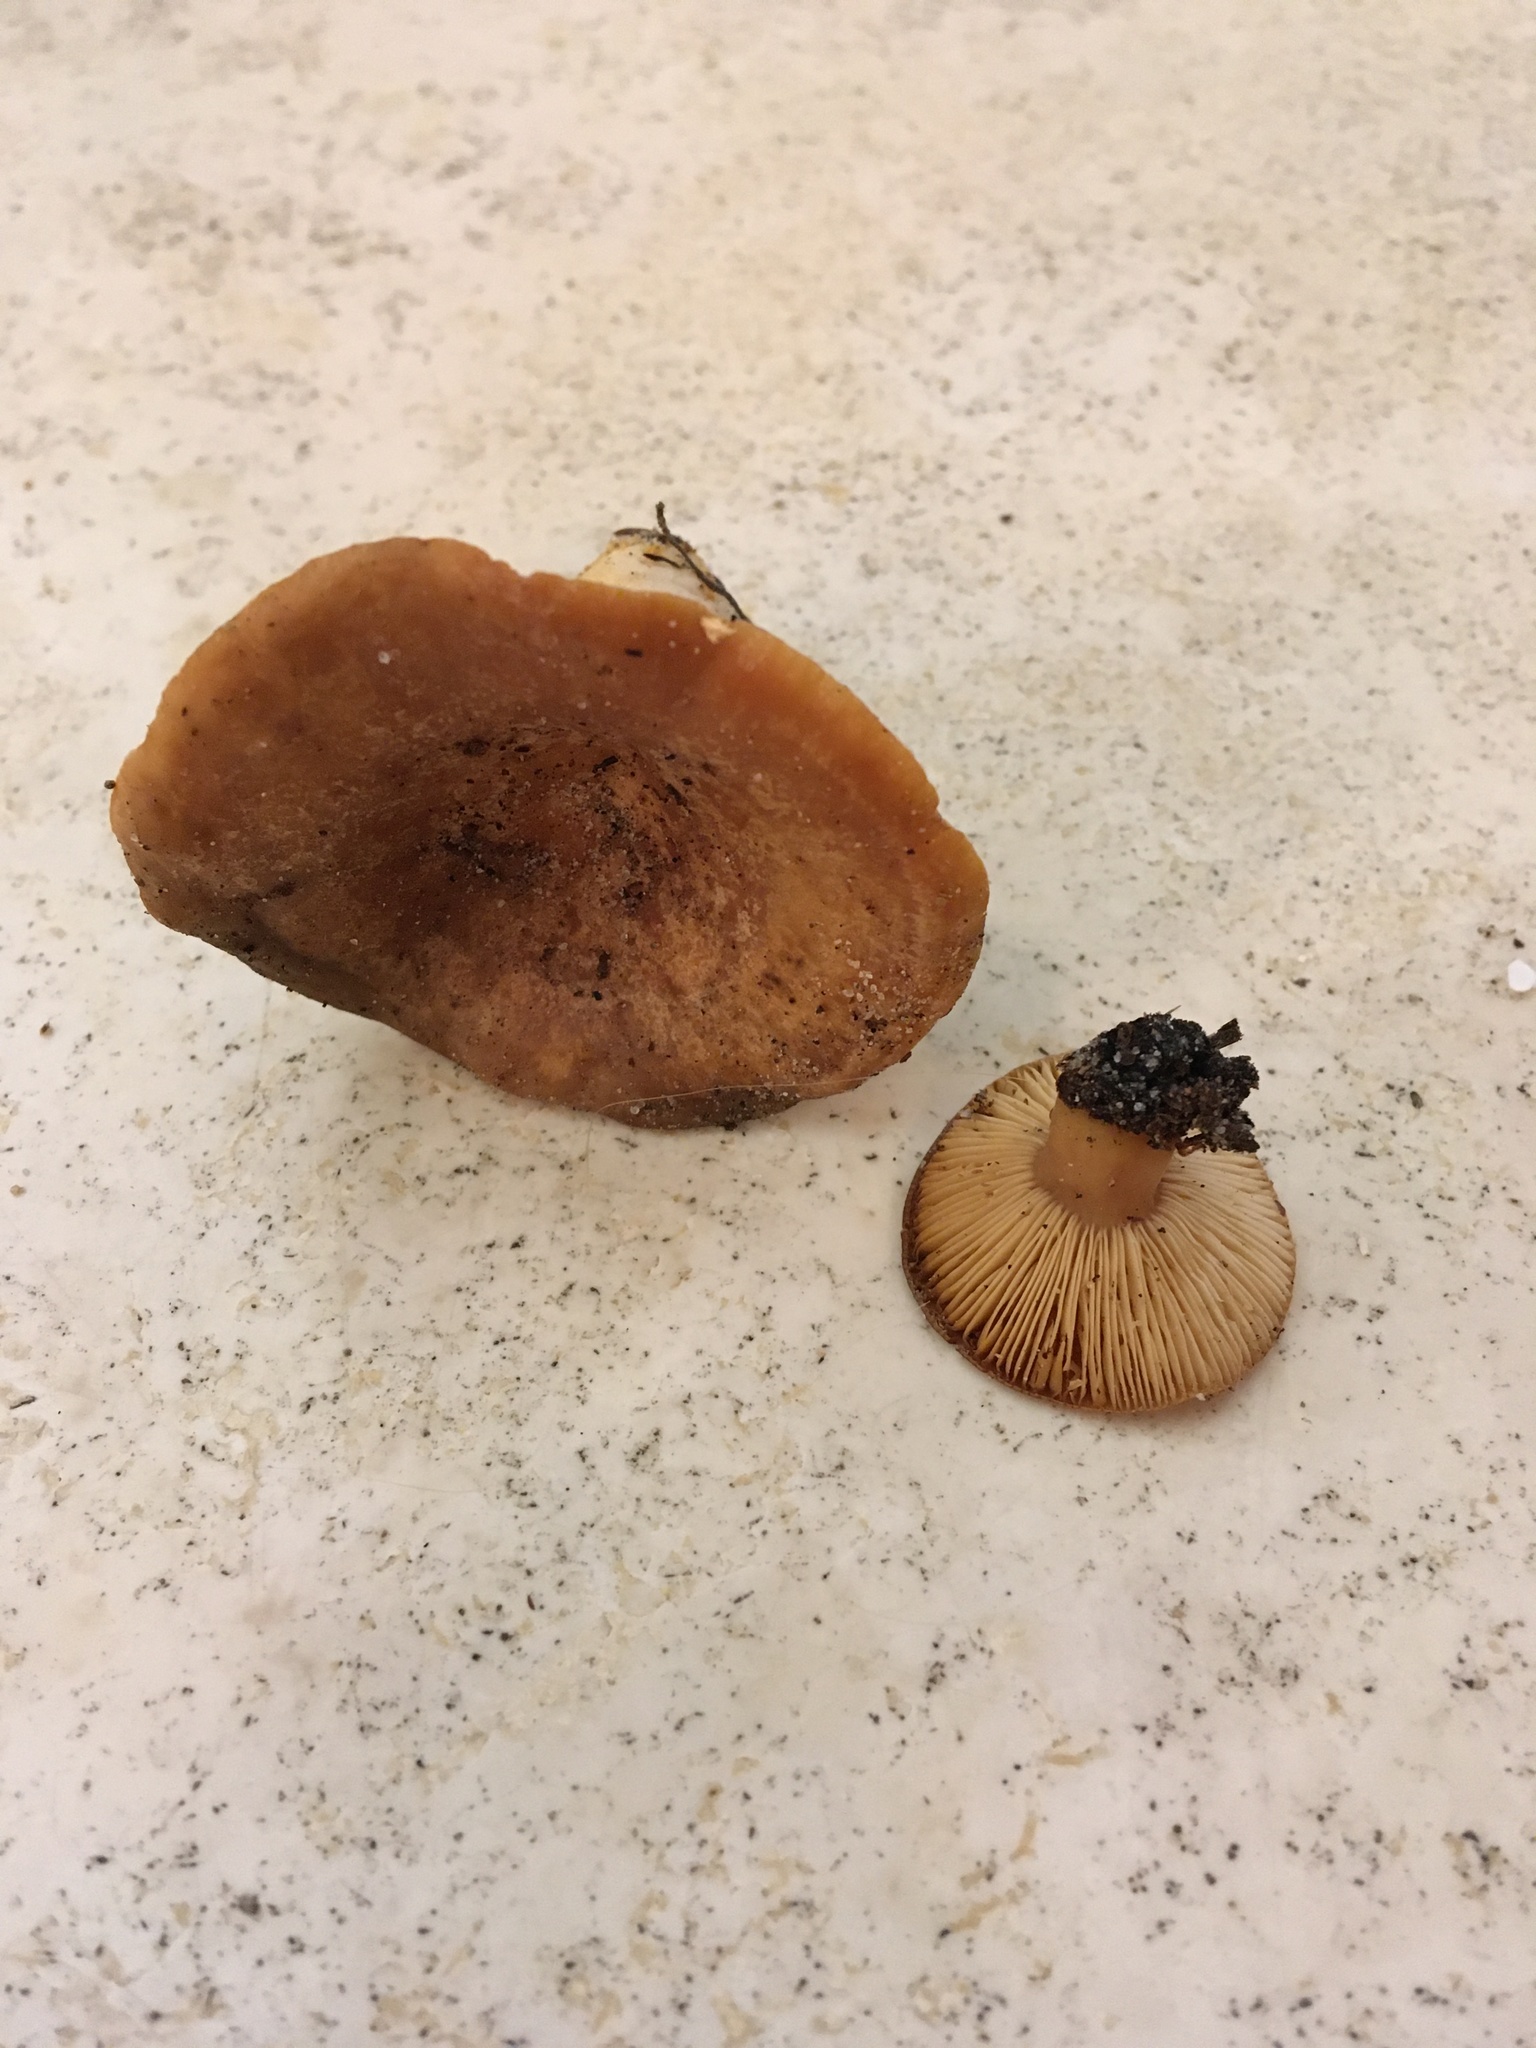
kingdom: Fungi
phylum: Basidiomycota
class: Agaricomycetes
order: Russulales
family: Russulaceae
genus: Lactarius
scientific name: Lactarius proximellus
